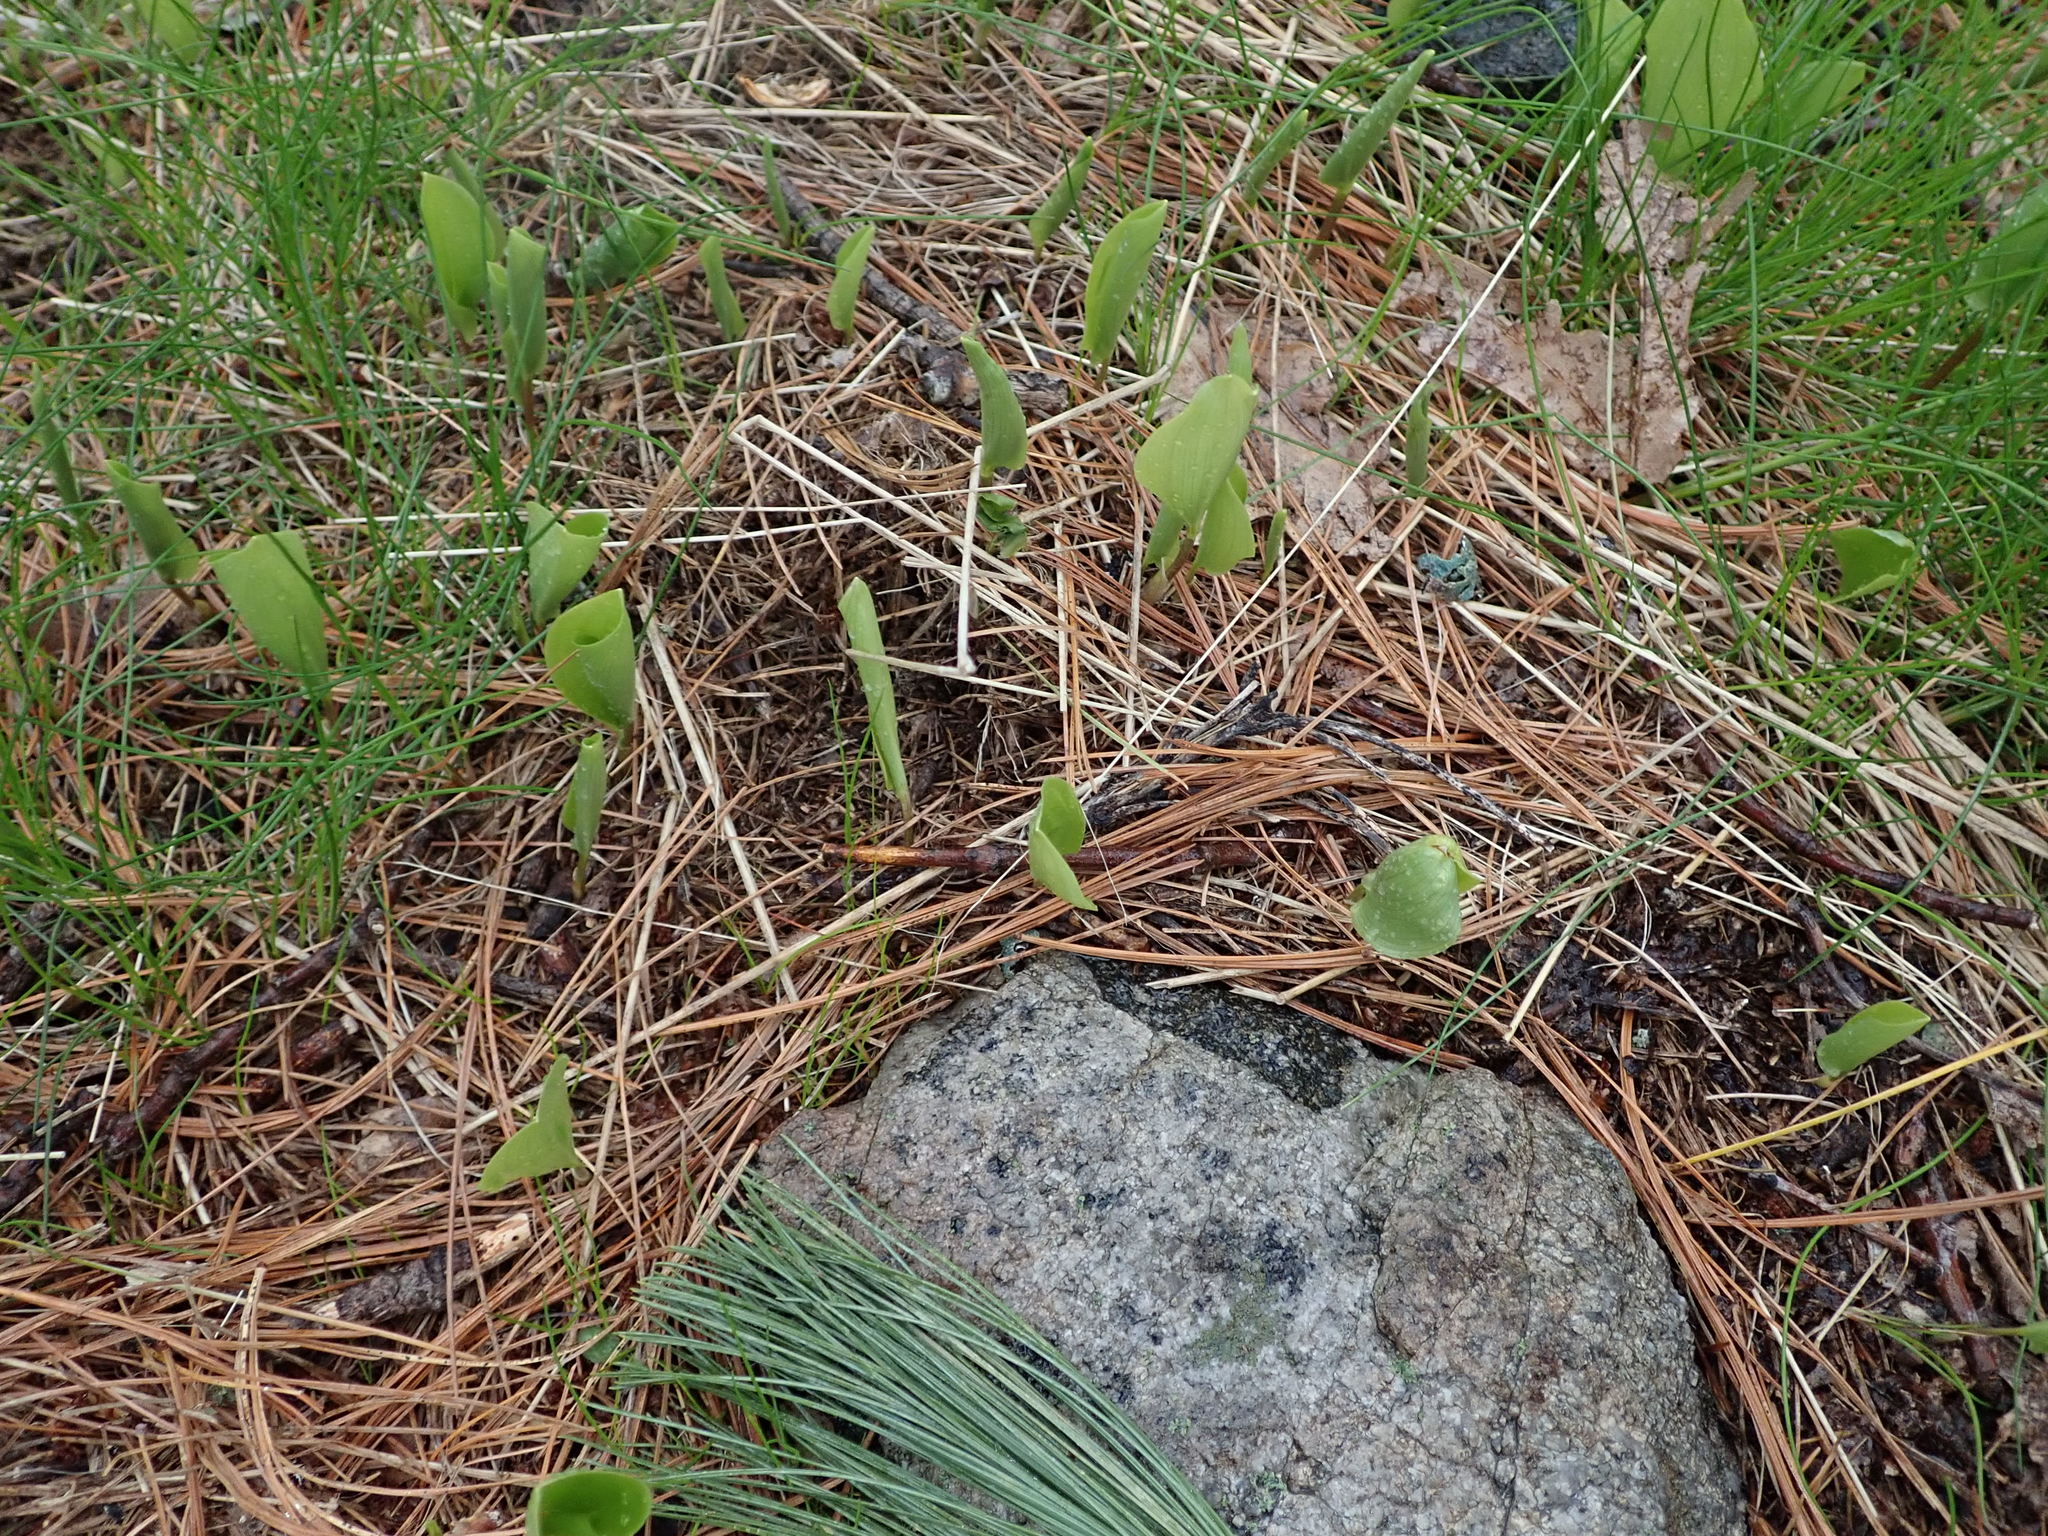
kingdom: Plantae
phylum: Tracheophyta
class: Liliopsida
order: Asparagales
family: Asparagaceae
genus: Maianthemum
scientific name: Maianthemum canadense
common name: False lily-of-the-valley
